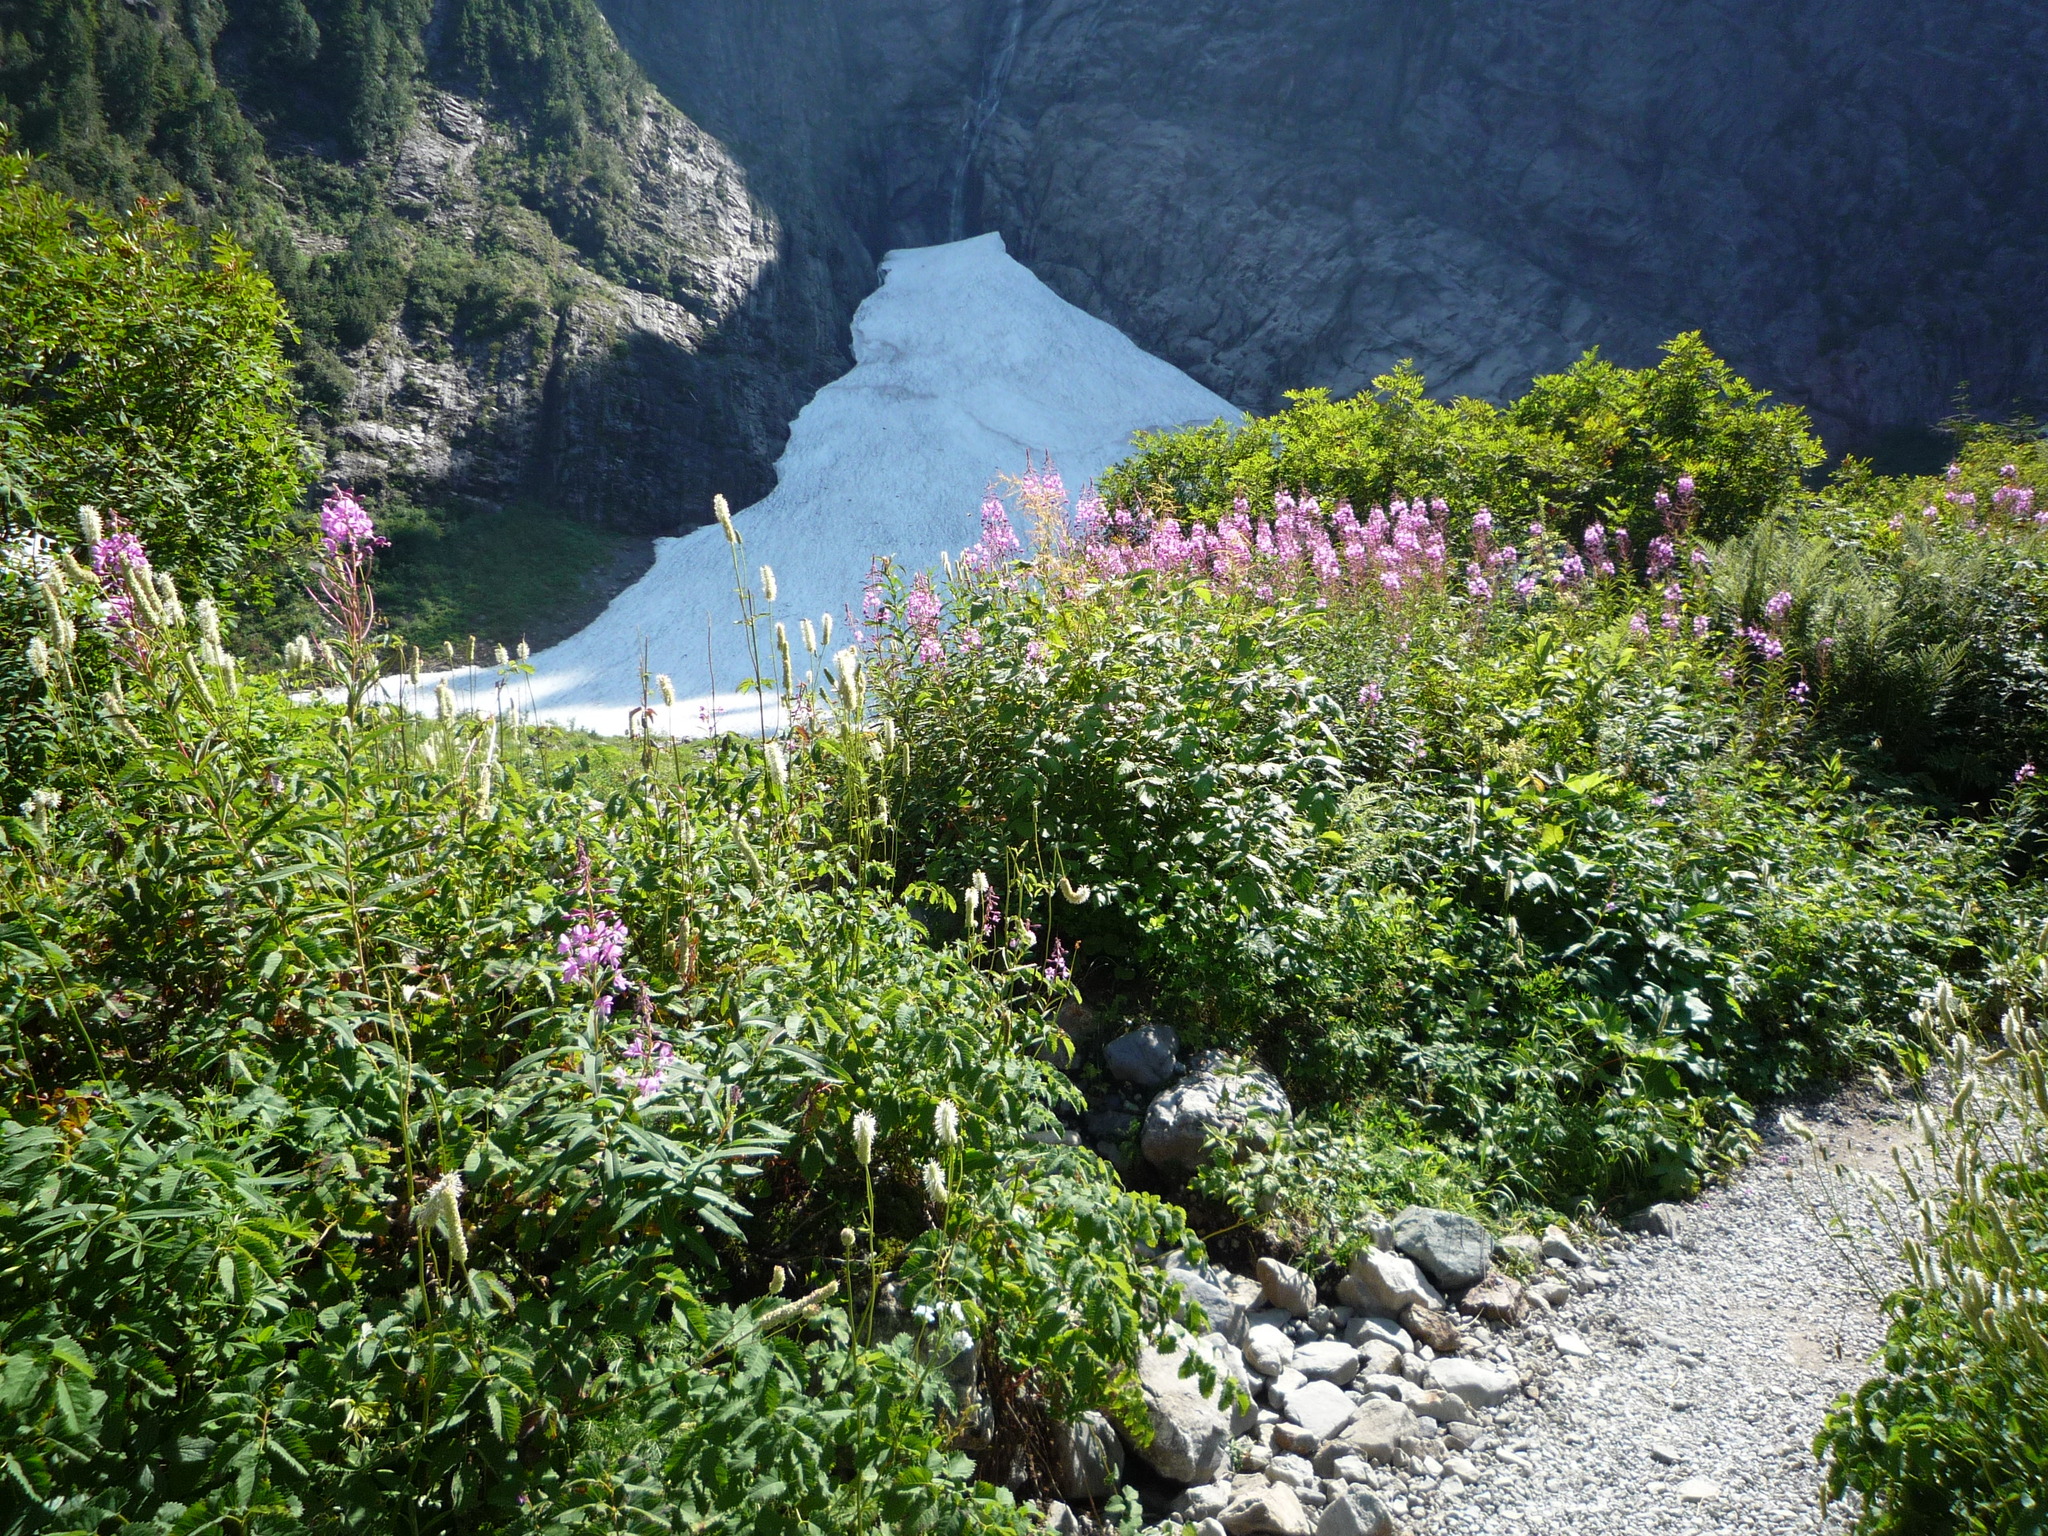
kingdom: Plantae
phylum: Tracheophyta
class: Magnoliopsida
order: Myrtales
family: Onagraceae
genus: Chamaenerion
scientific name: Chamaenerion angustifolium
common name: Fireweed
